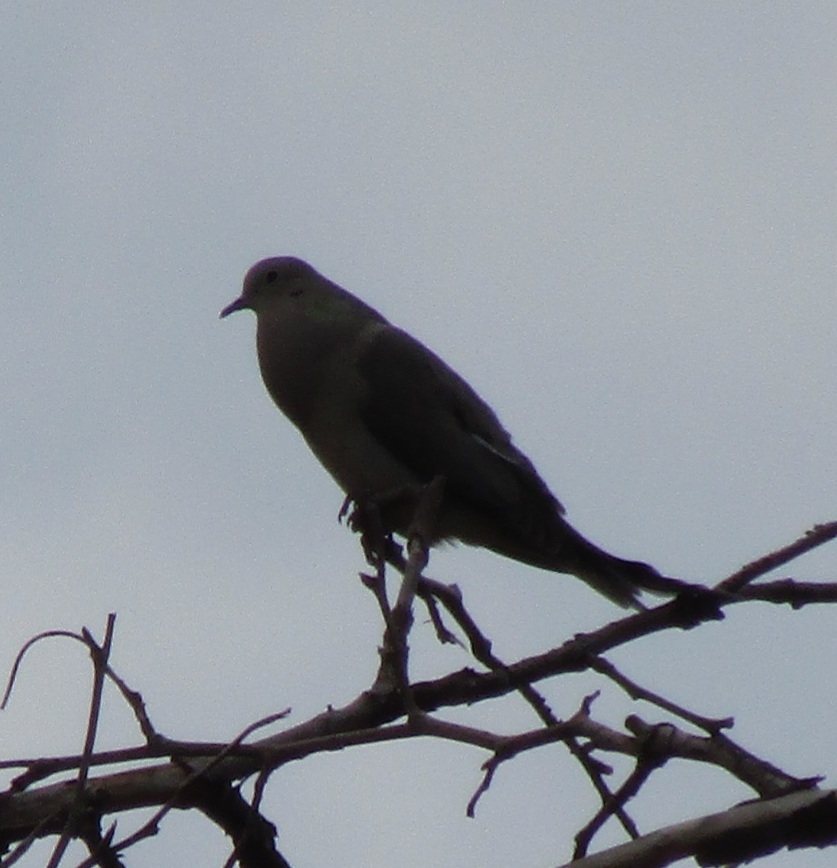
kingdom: Animalia
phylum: Chordata
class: Aves
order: Columbiformes
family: Columbidae
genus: Zenaida
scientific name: Zenaida macroura
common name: Mourning dove
